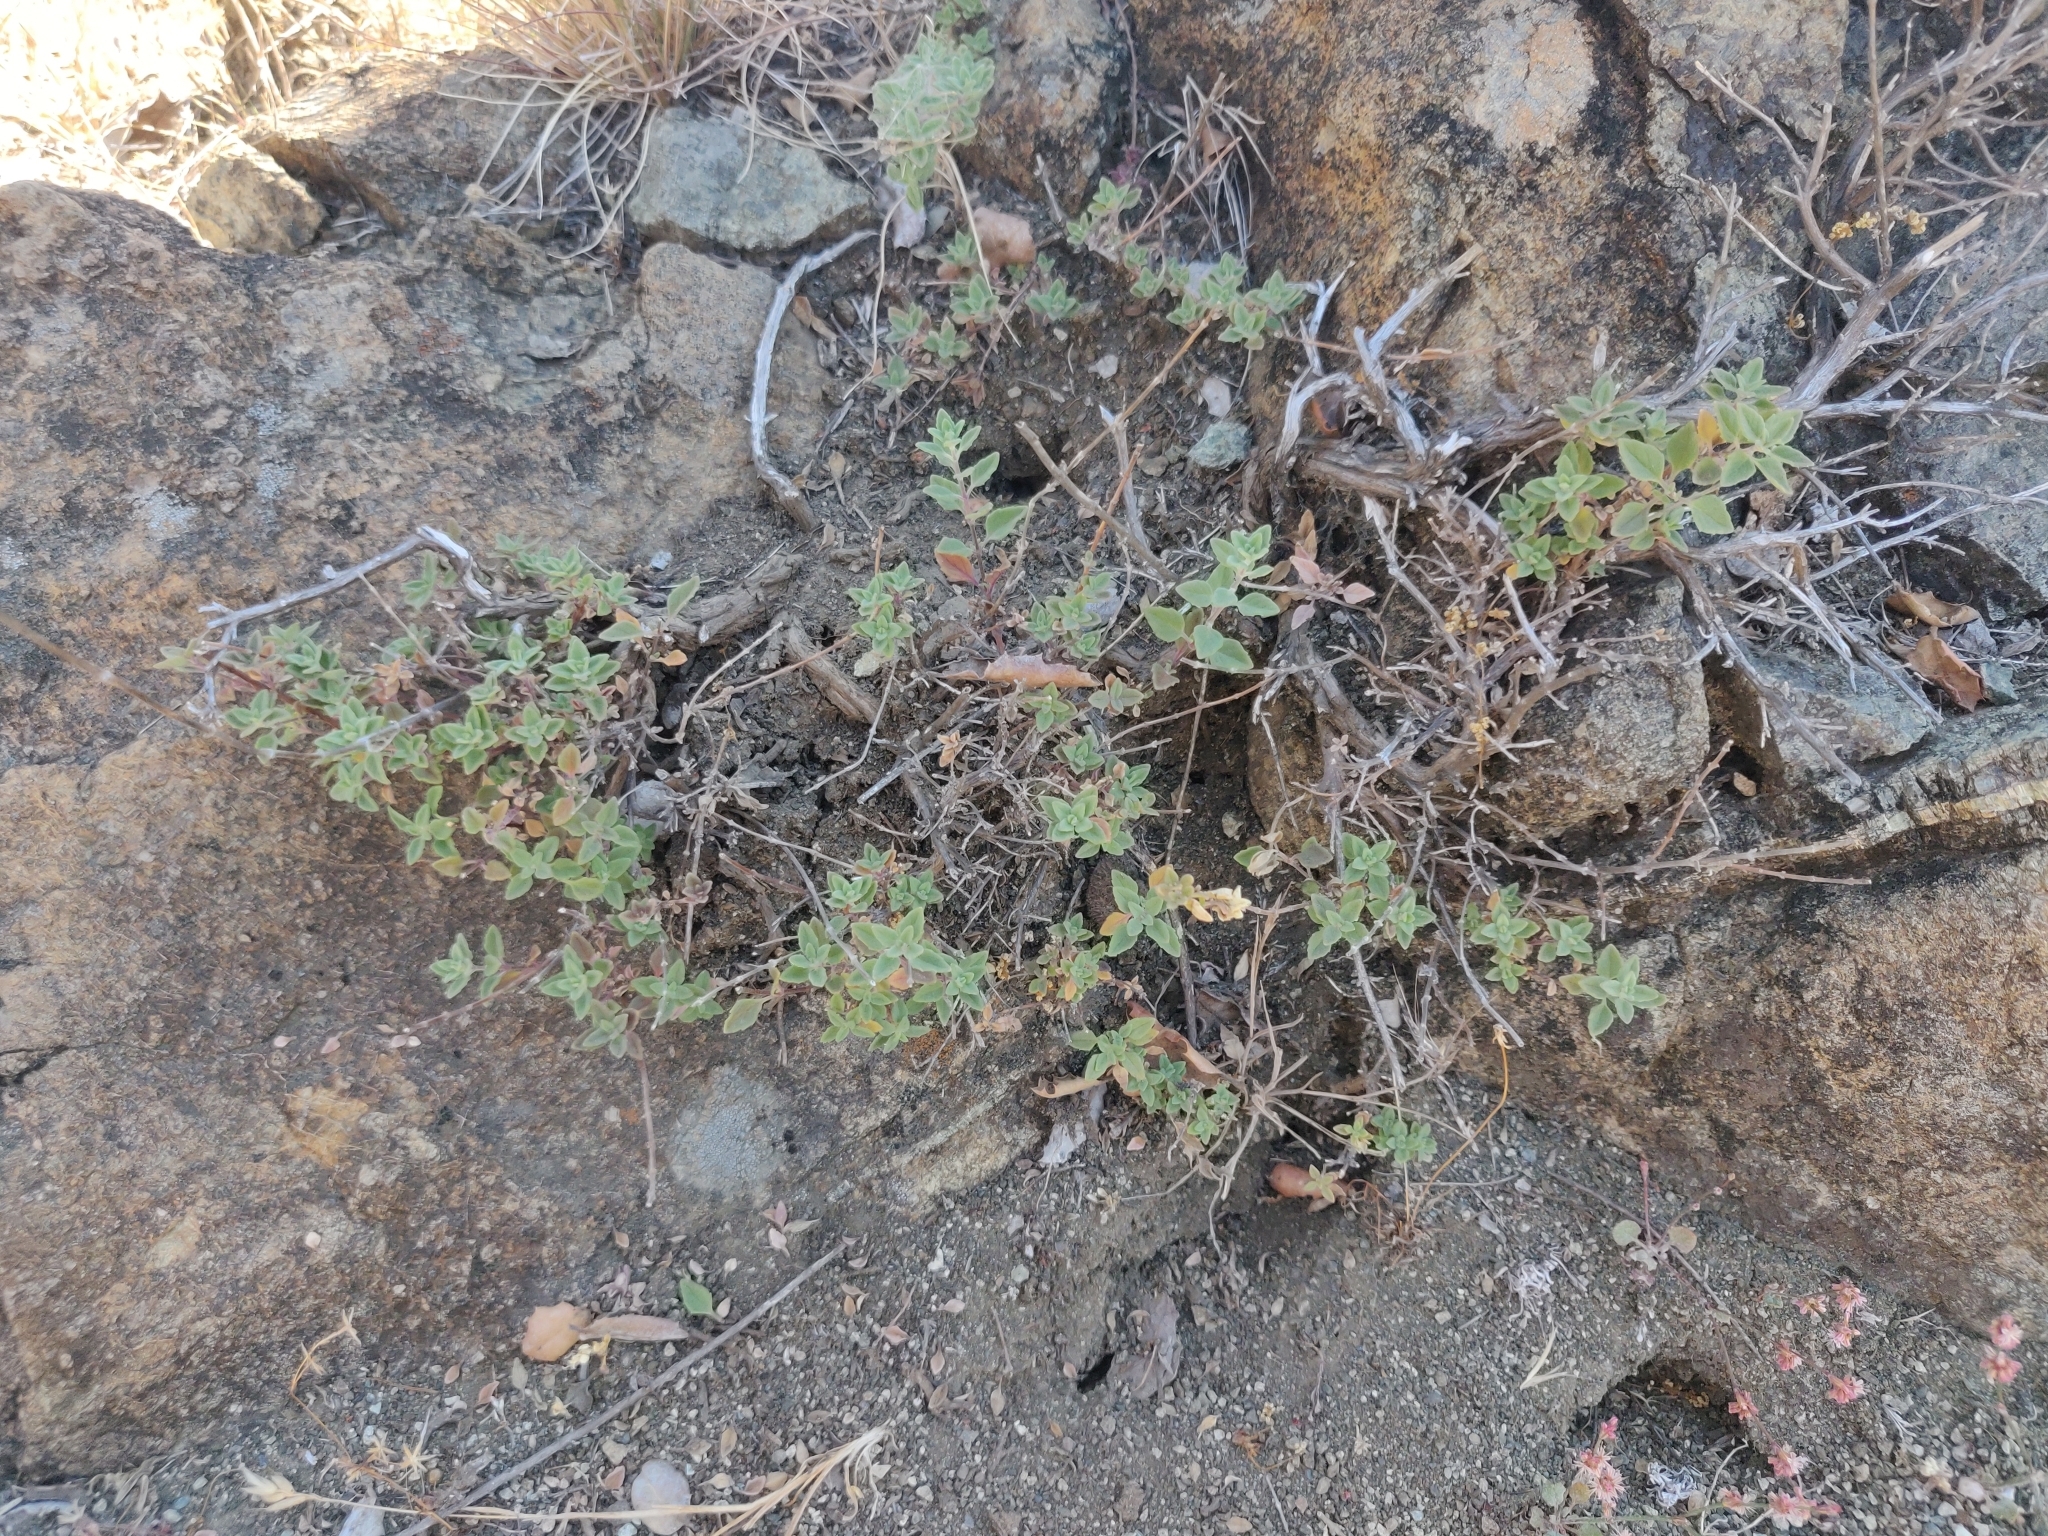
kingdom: Plantae
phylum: Tracheophyta
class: Magnoliopsida
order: Lamiales
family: Lamiaceae
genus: Monardella
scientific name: Monardella odoratissima
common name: Pacific monardella
